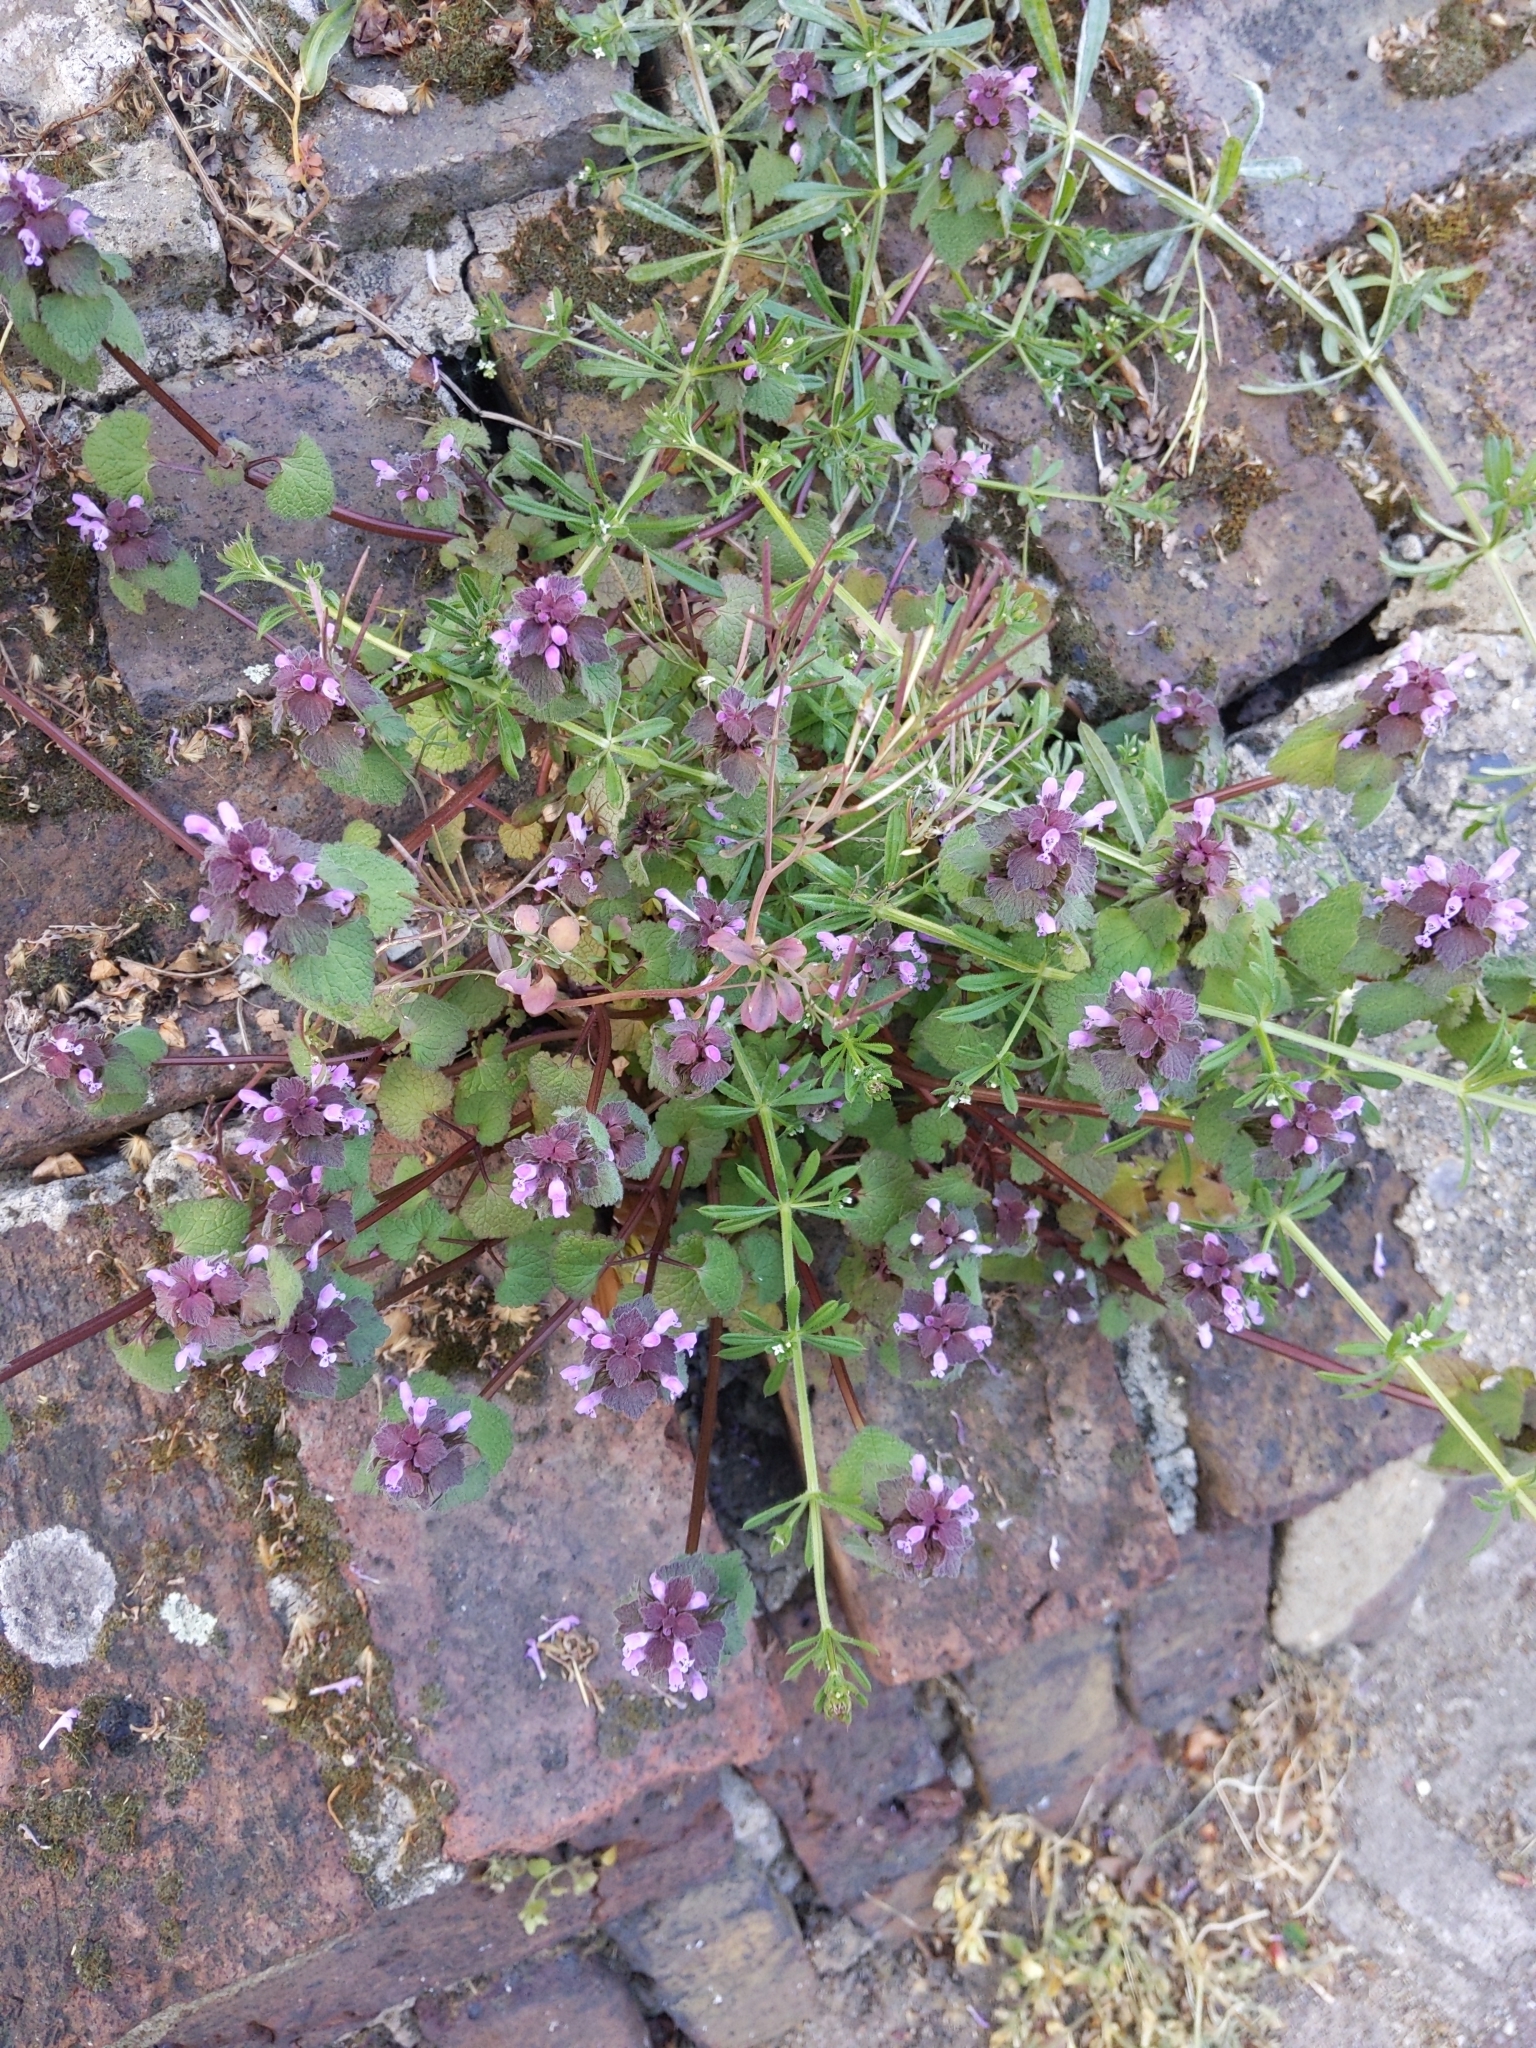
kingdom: Plantae
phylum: Tracheophyta
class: Magnoliopsida
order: Lamiales
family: Lamiaceae
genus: Lamium
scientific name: Lamium purpureum
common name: Red dead-nettle
